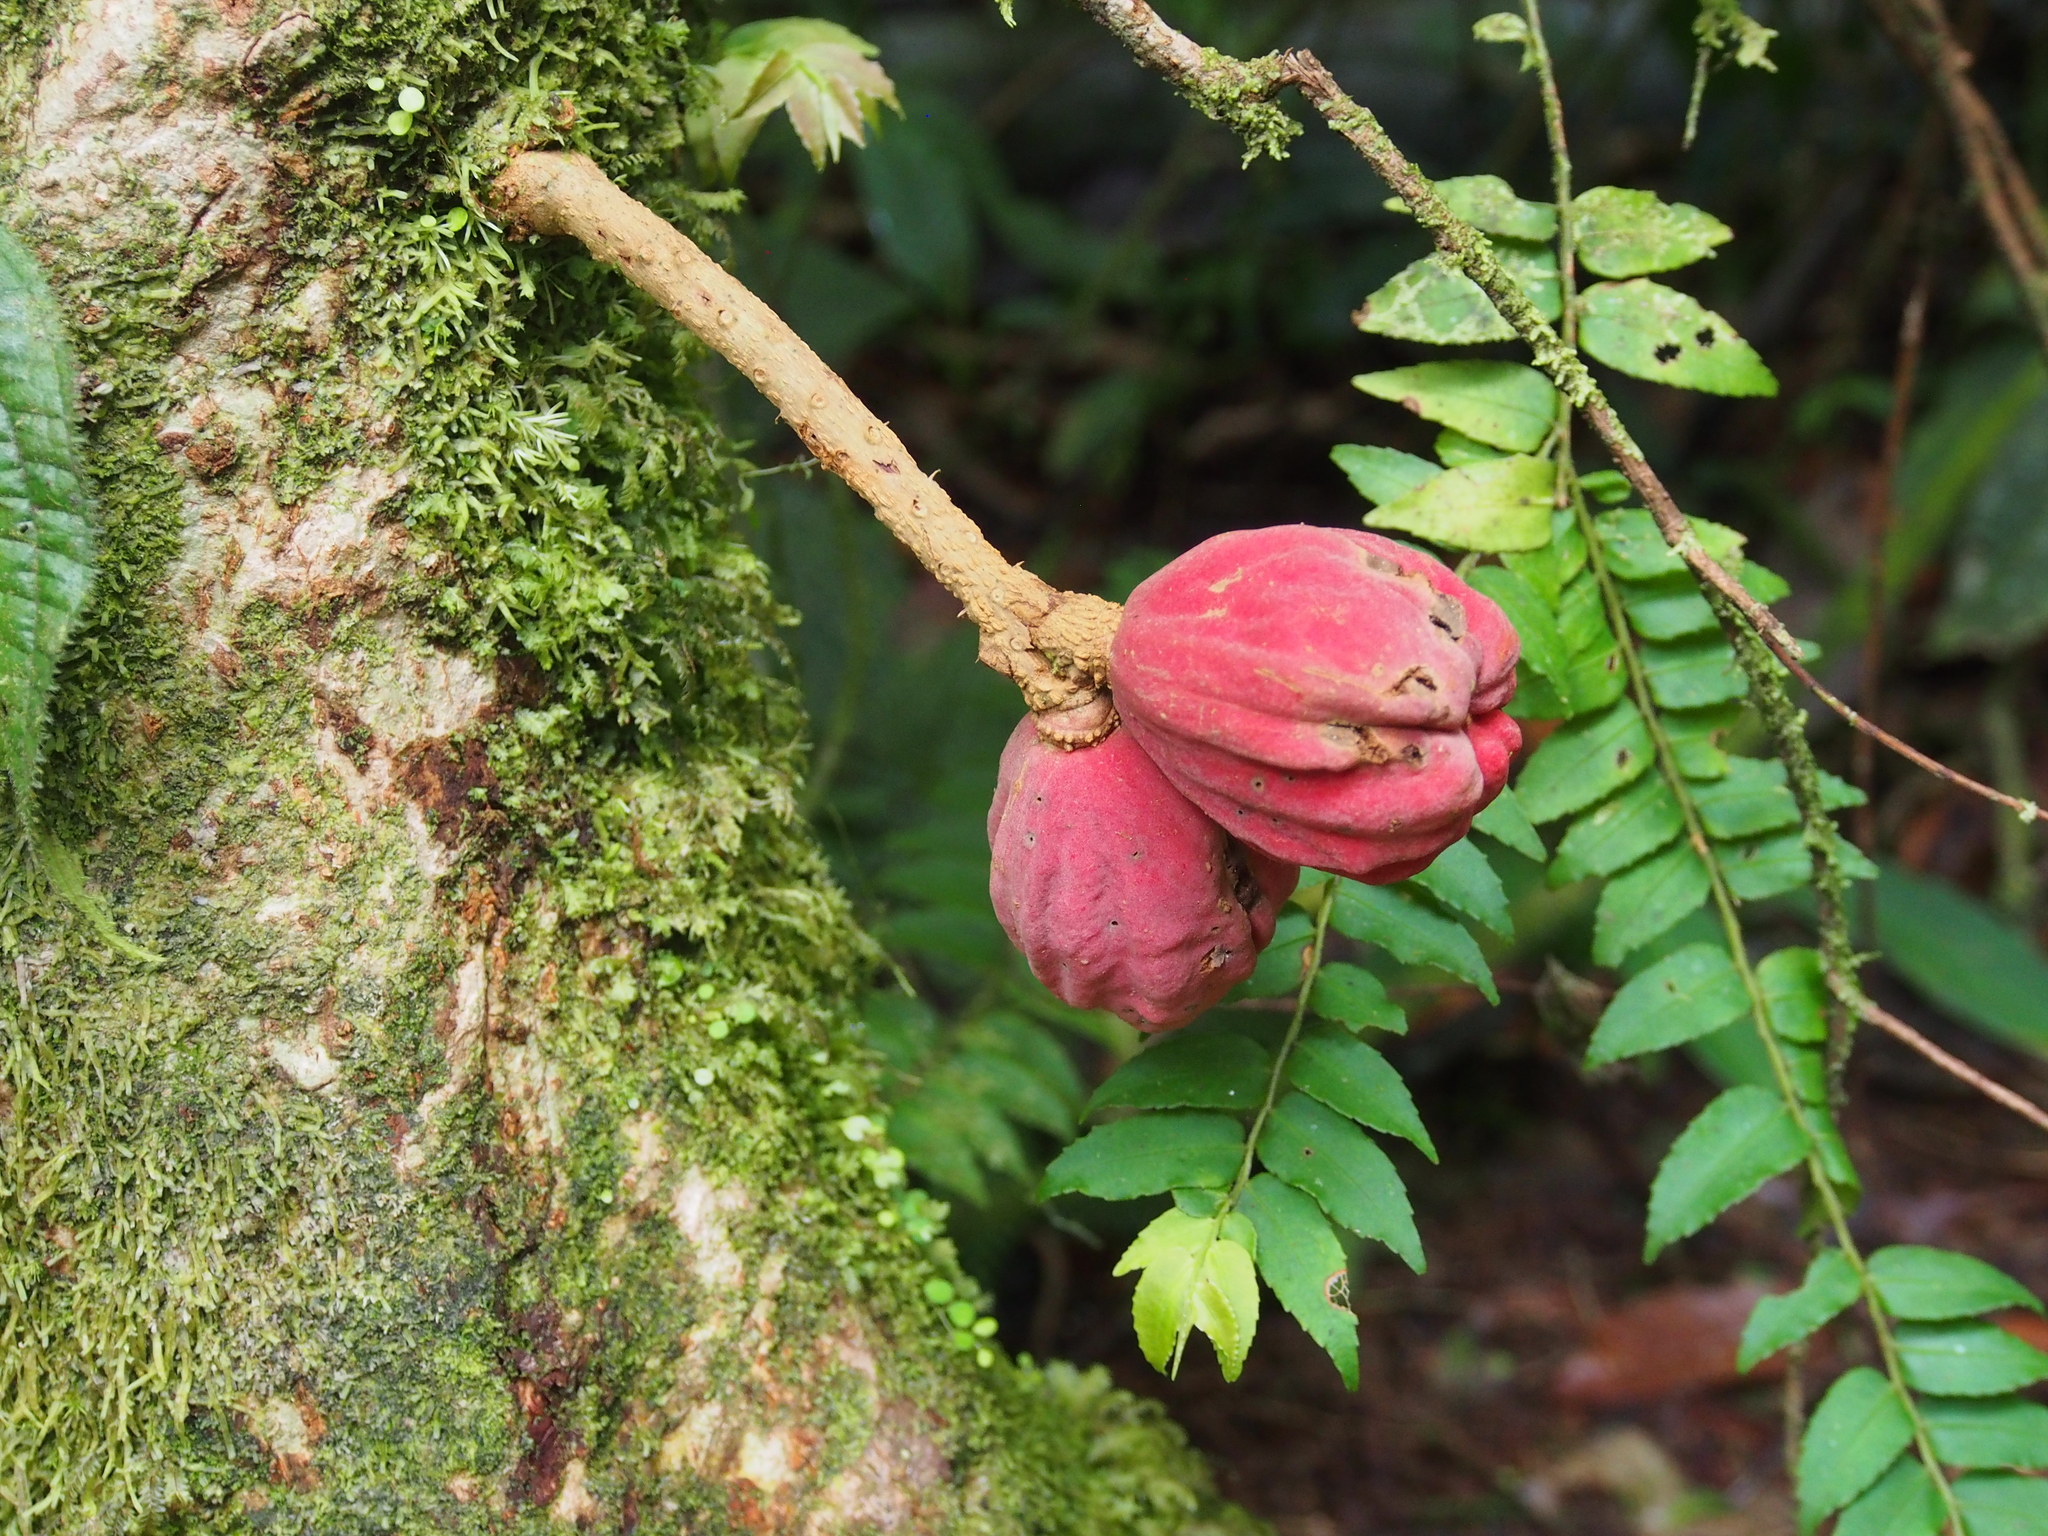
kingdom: Plantae
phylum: Tracheophyta
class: Magnoliopsida
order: Sapindales
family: Meliaceae
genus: Guarea
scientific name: Guarea rhopalocarpa
